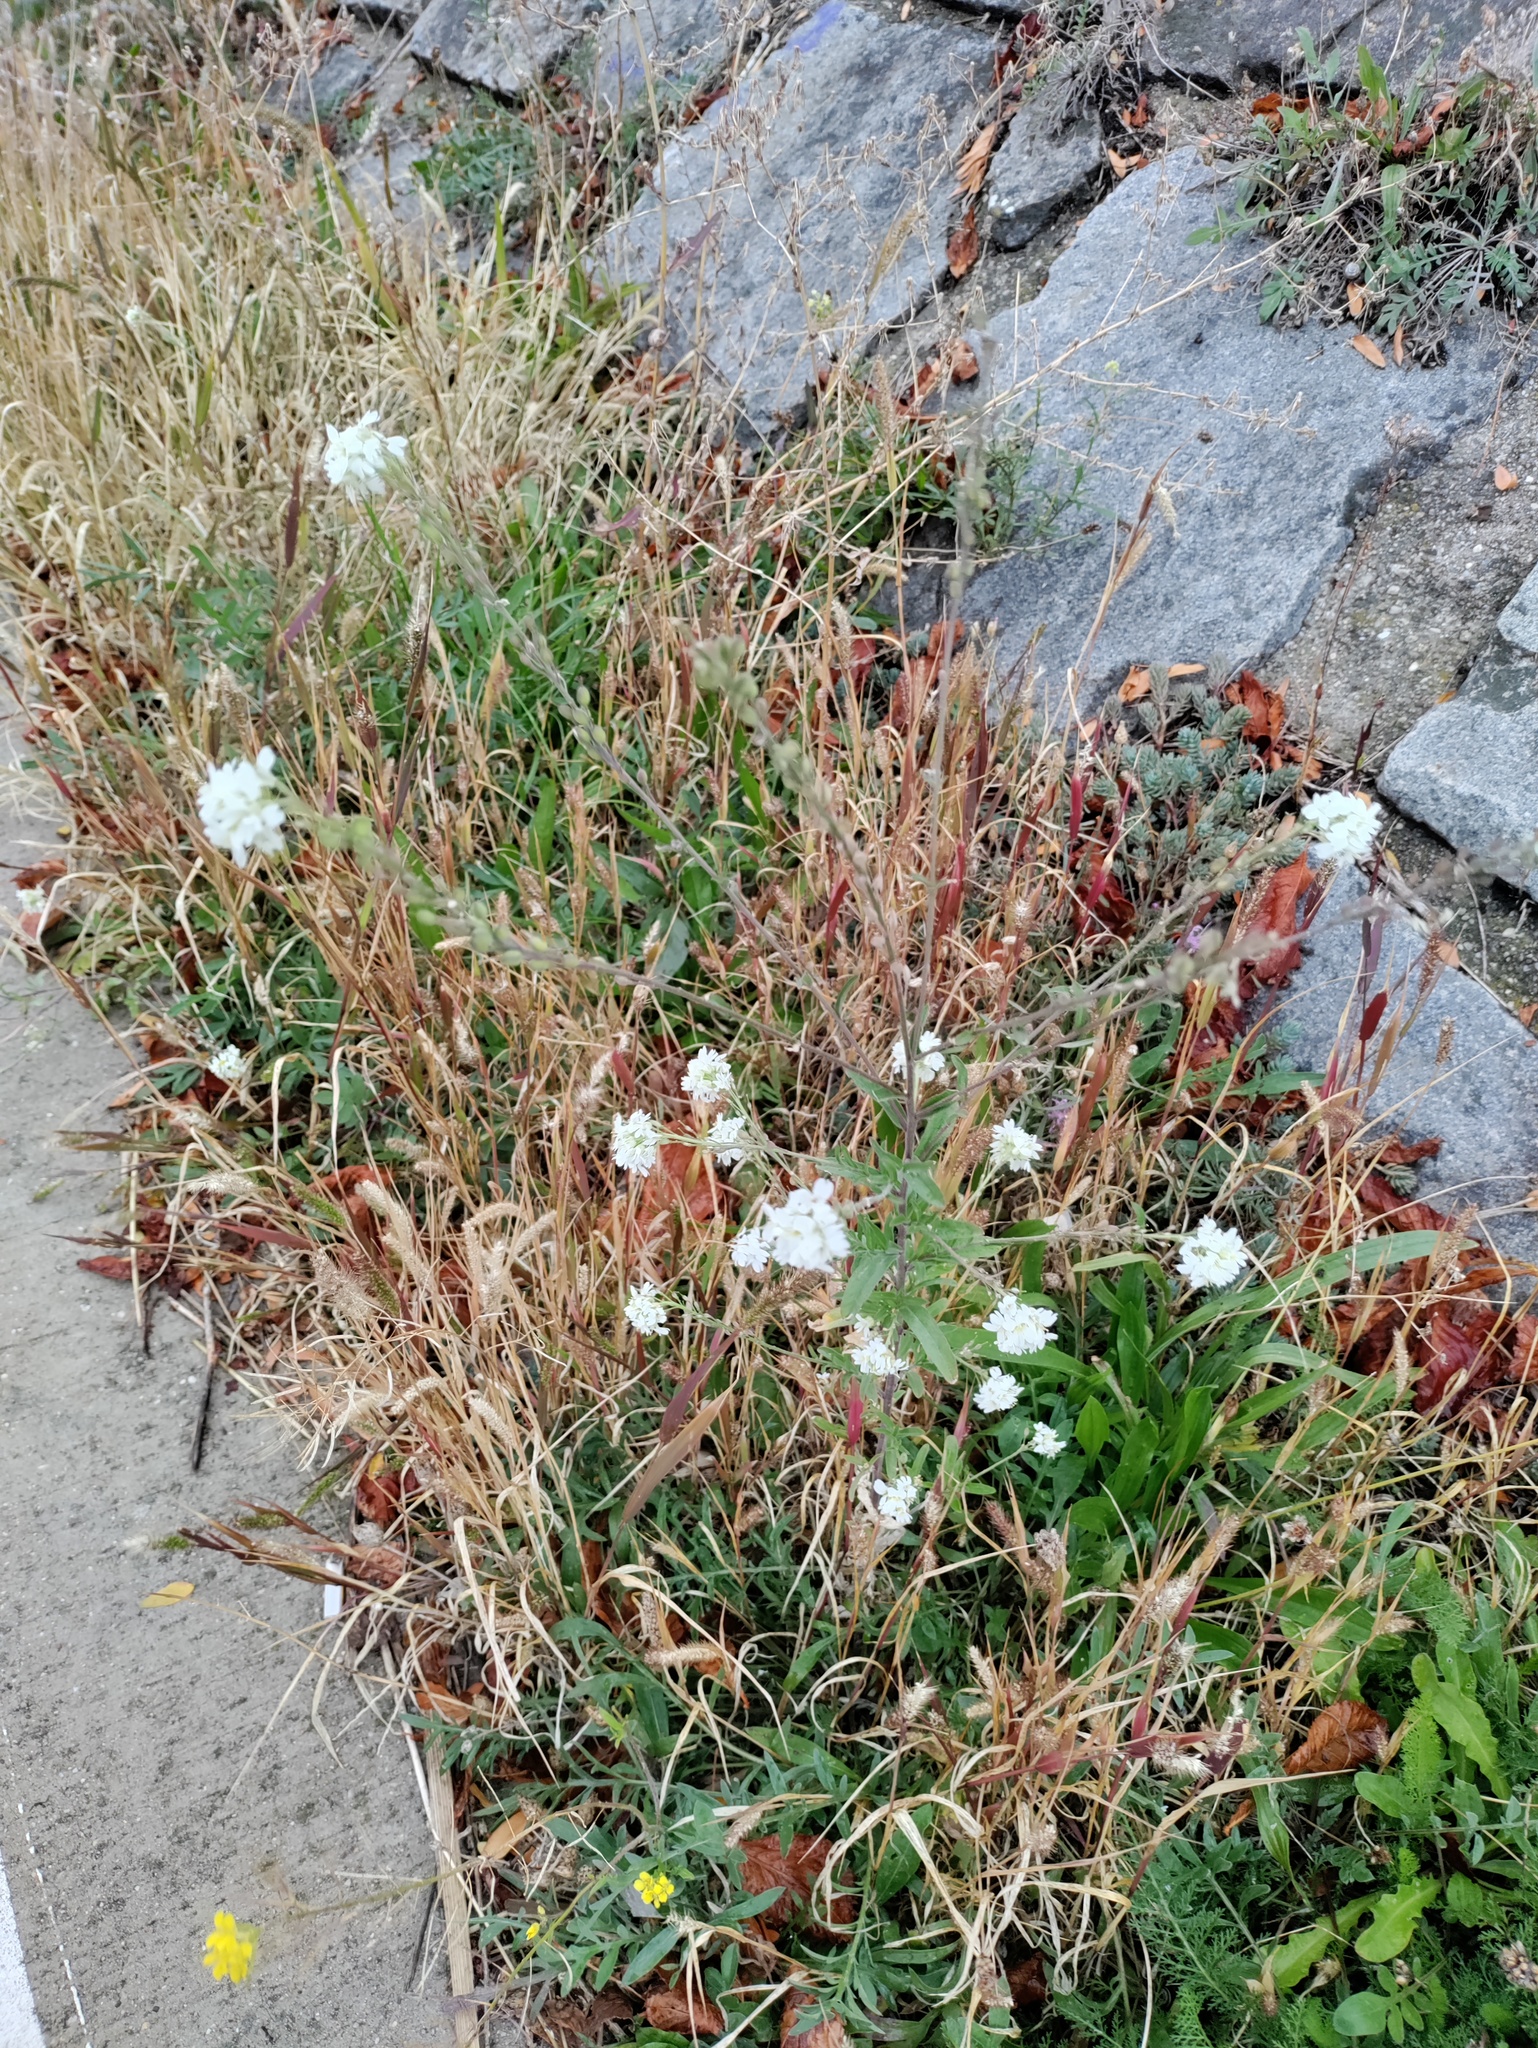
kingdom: Plantae
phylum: Tracheophyta
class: Magnoliopsida
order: Brassicales
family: Brassicaceae
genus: Berteroa
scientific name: Berteroa incana
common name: Hoary alison
